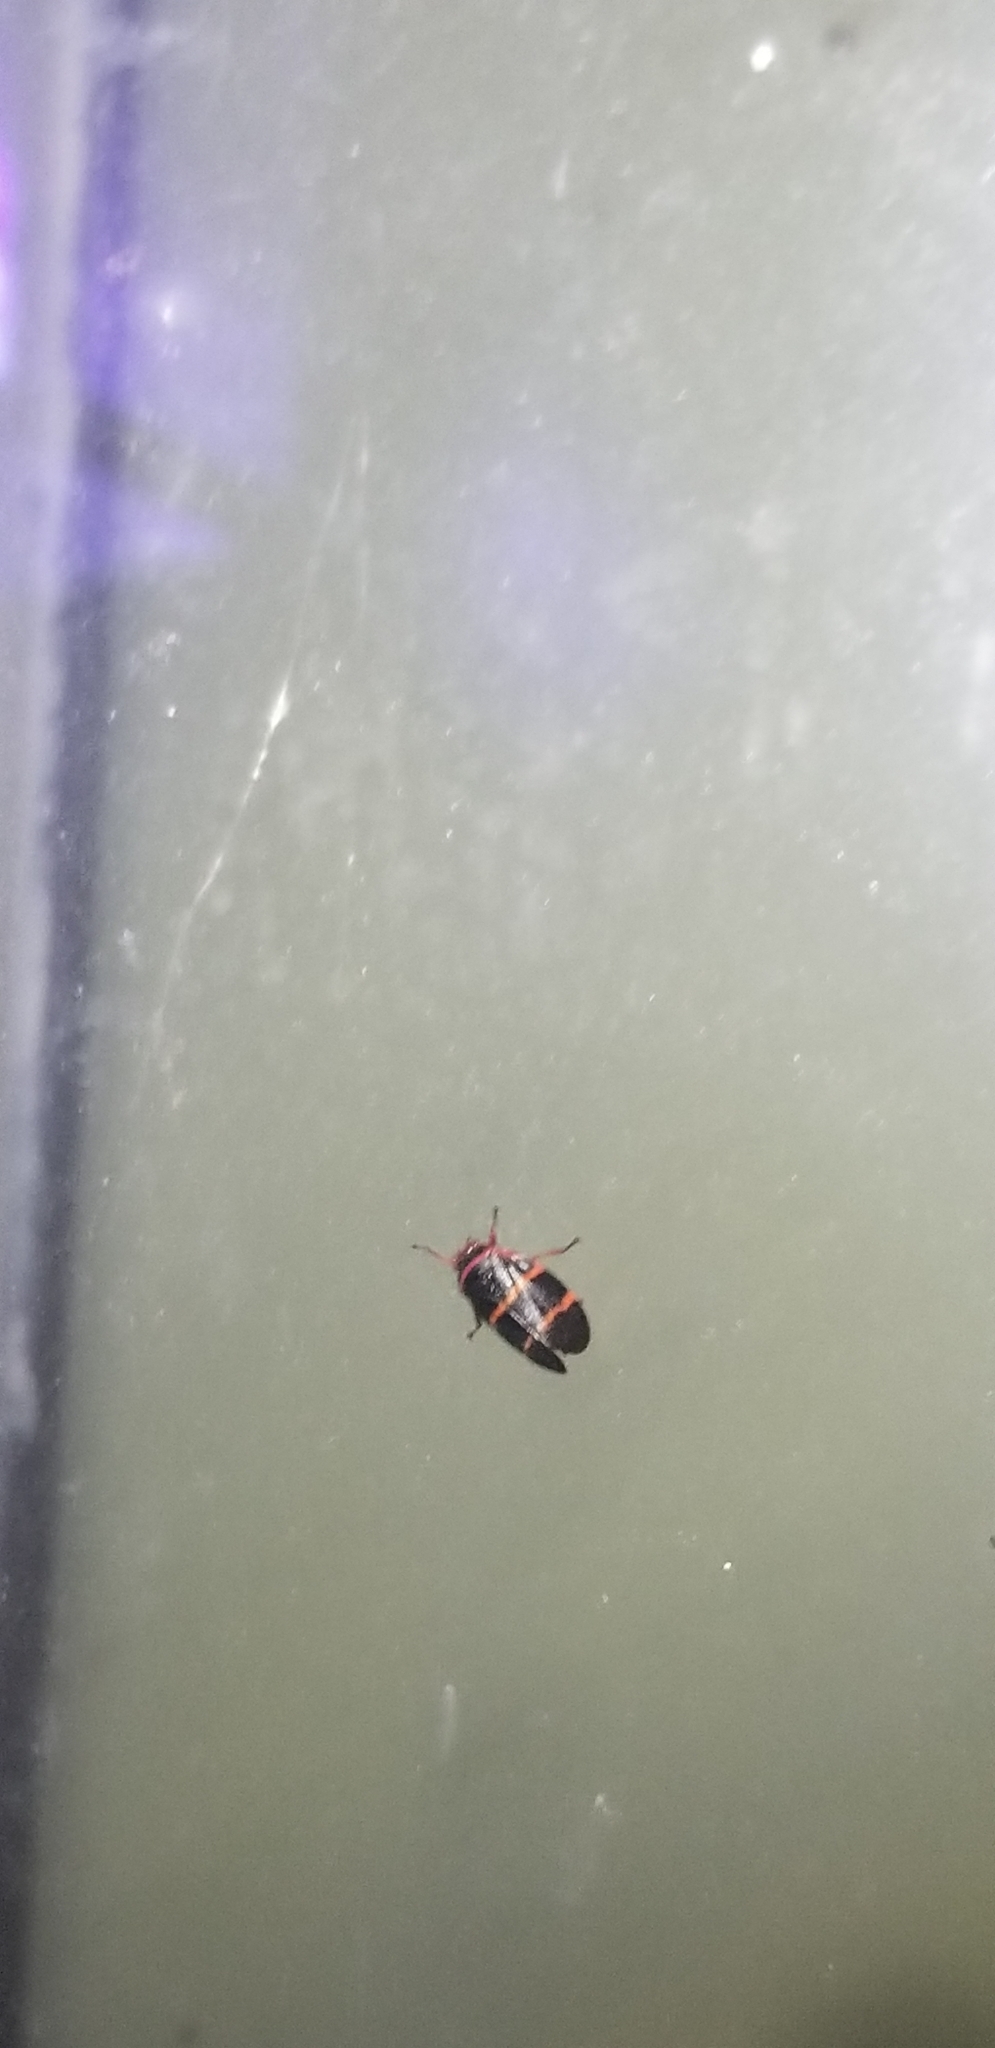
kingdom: Animalia
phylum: Arthropoda
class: Insecta
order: Hemiptera
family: Cercopidae
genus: Prosapia
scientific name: Prosapia bicincta
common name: Twolined spittlebug
